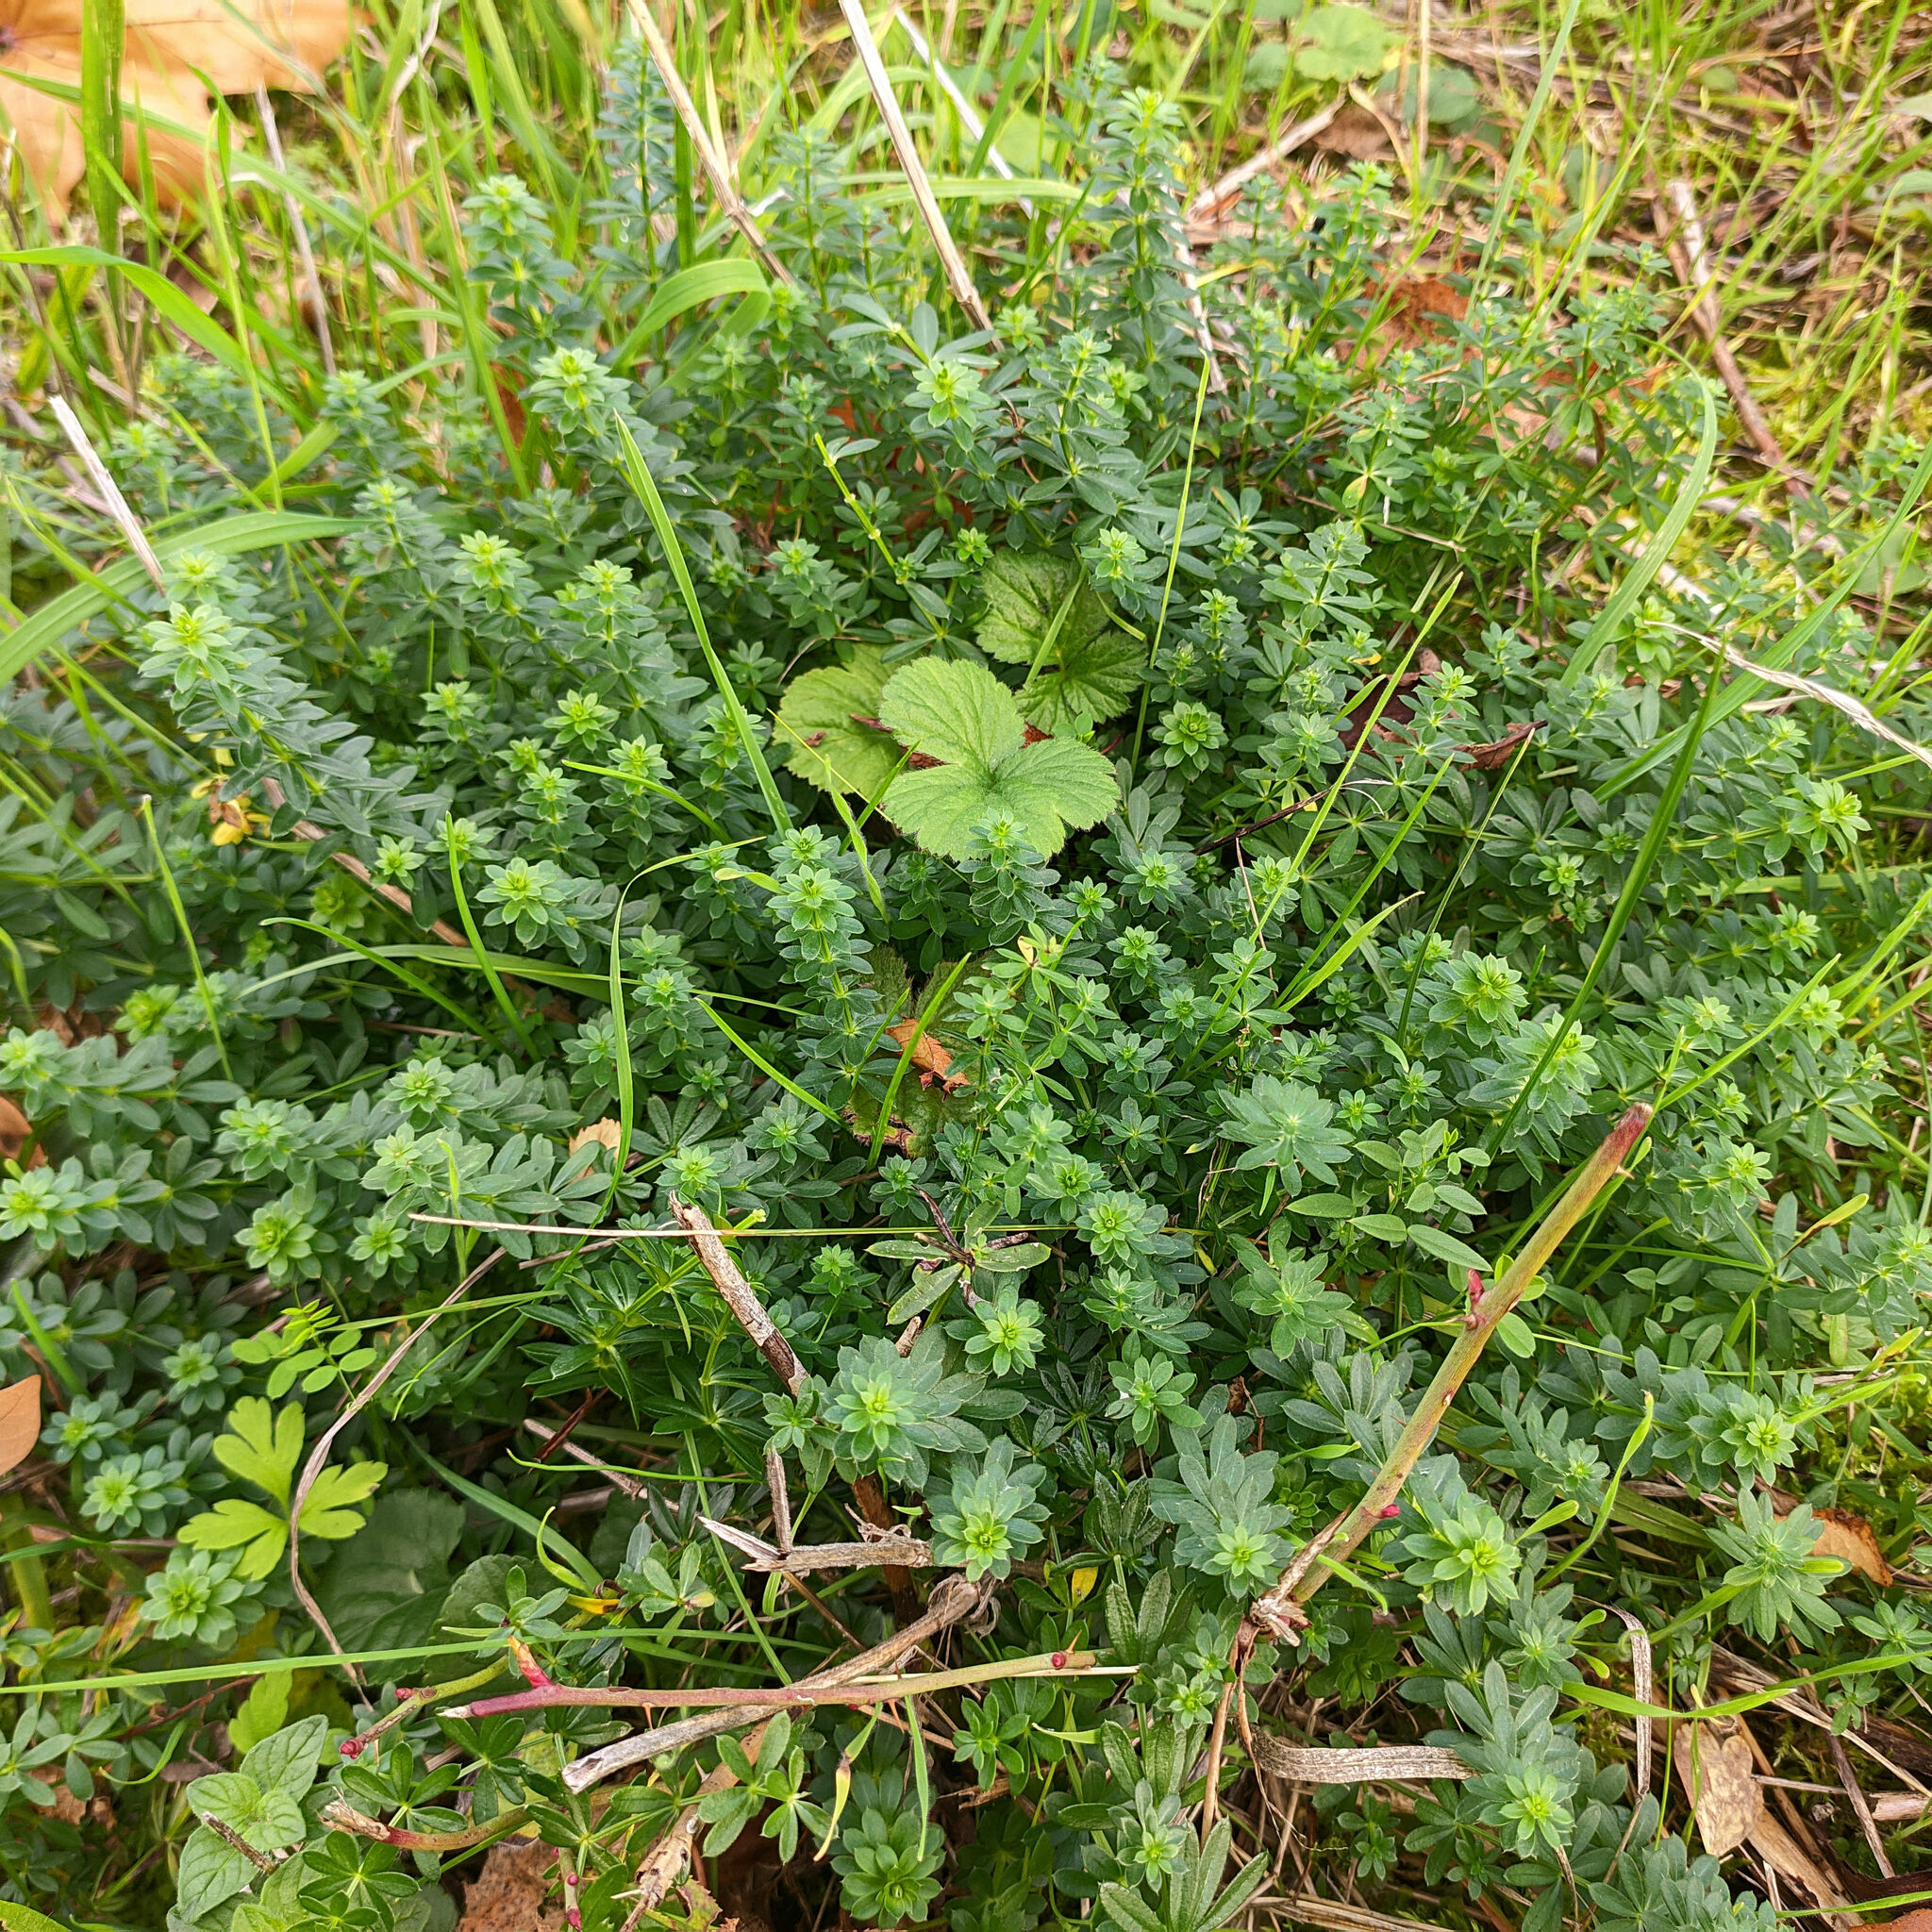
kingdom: Plantae
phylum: Tracheophyta
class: Magnoliopsida
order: Gentianales
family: Rubiaceae
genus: Galium
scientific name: Galium mollugo
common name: Hedge bedstraw
